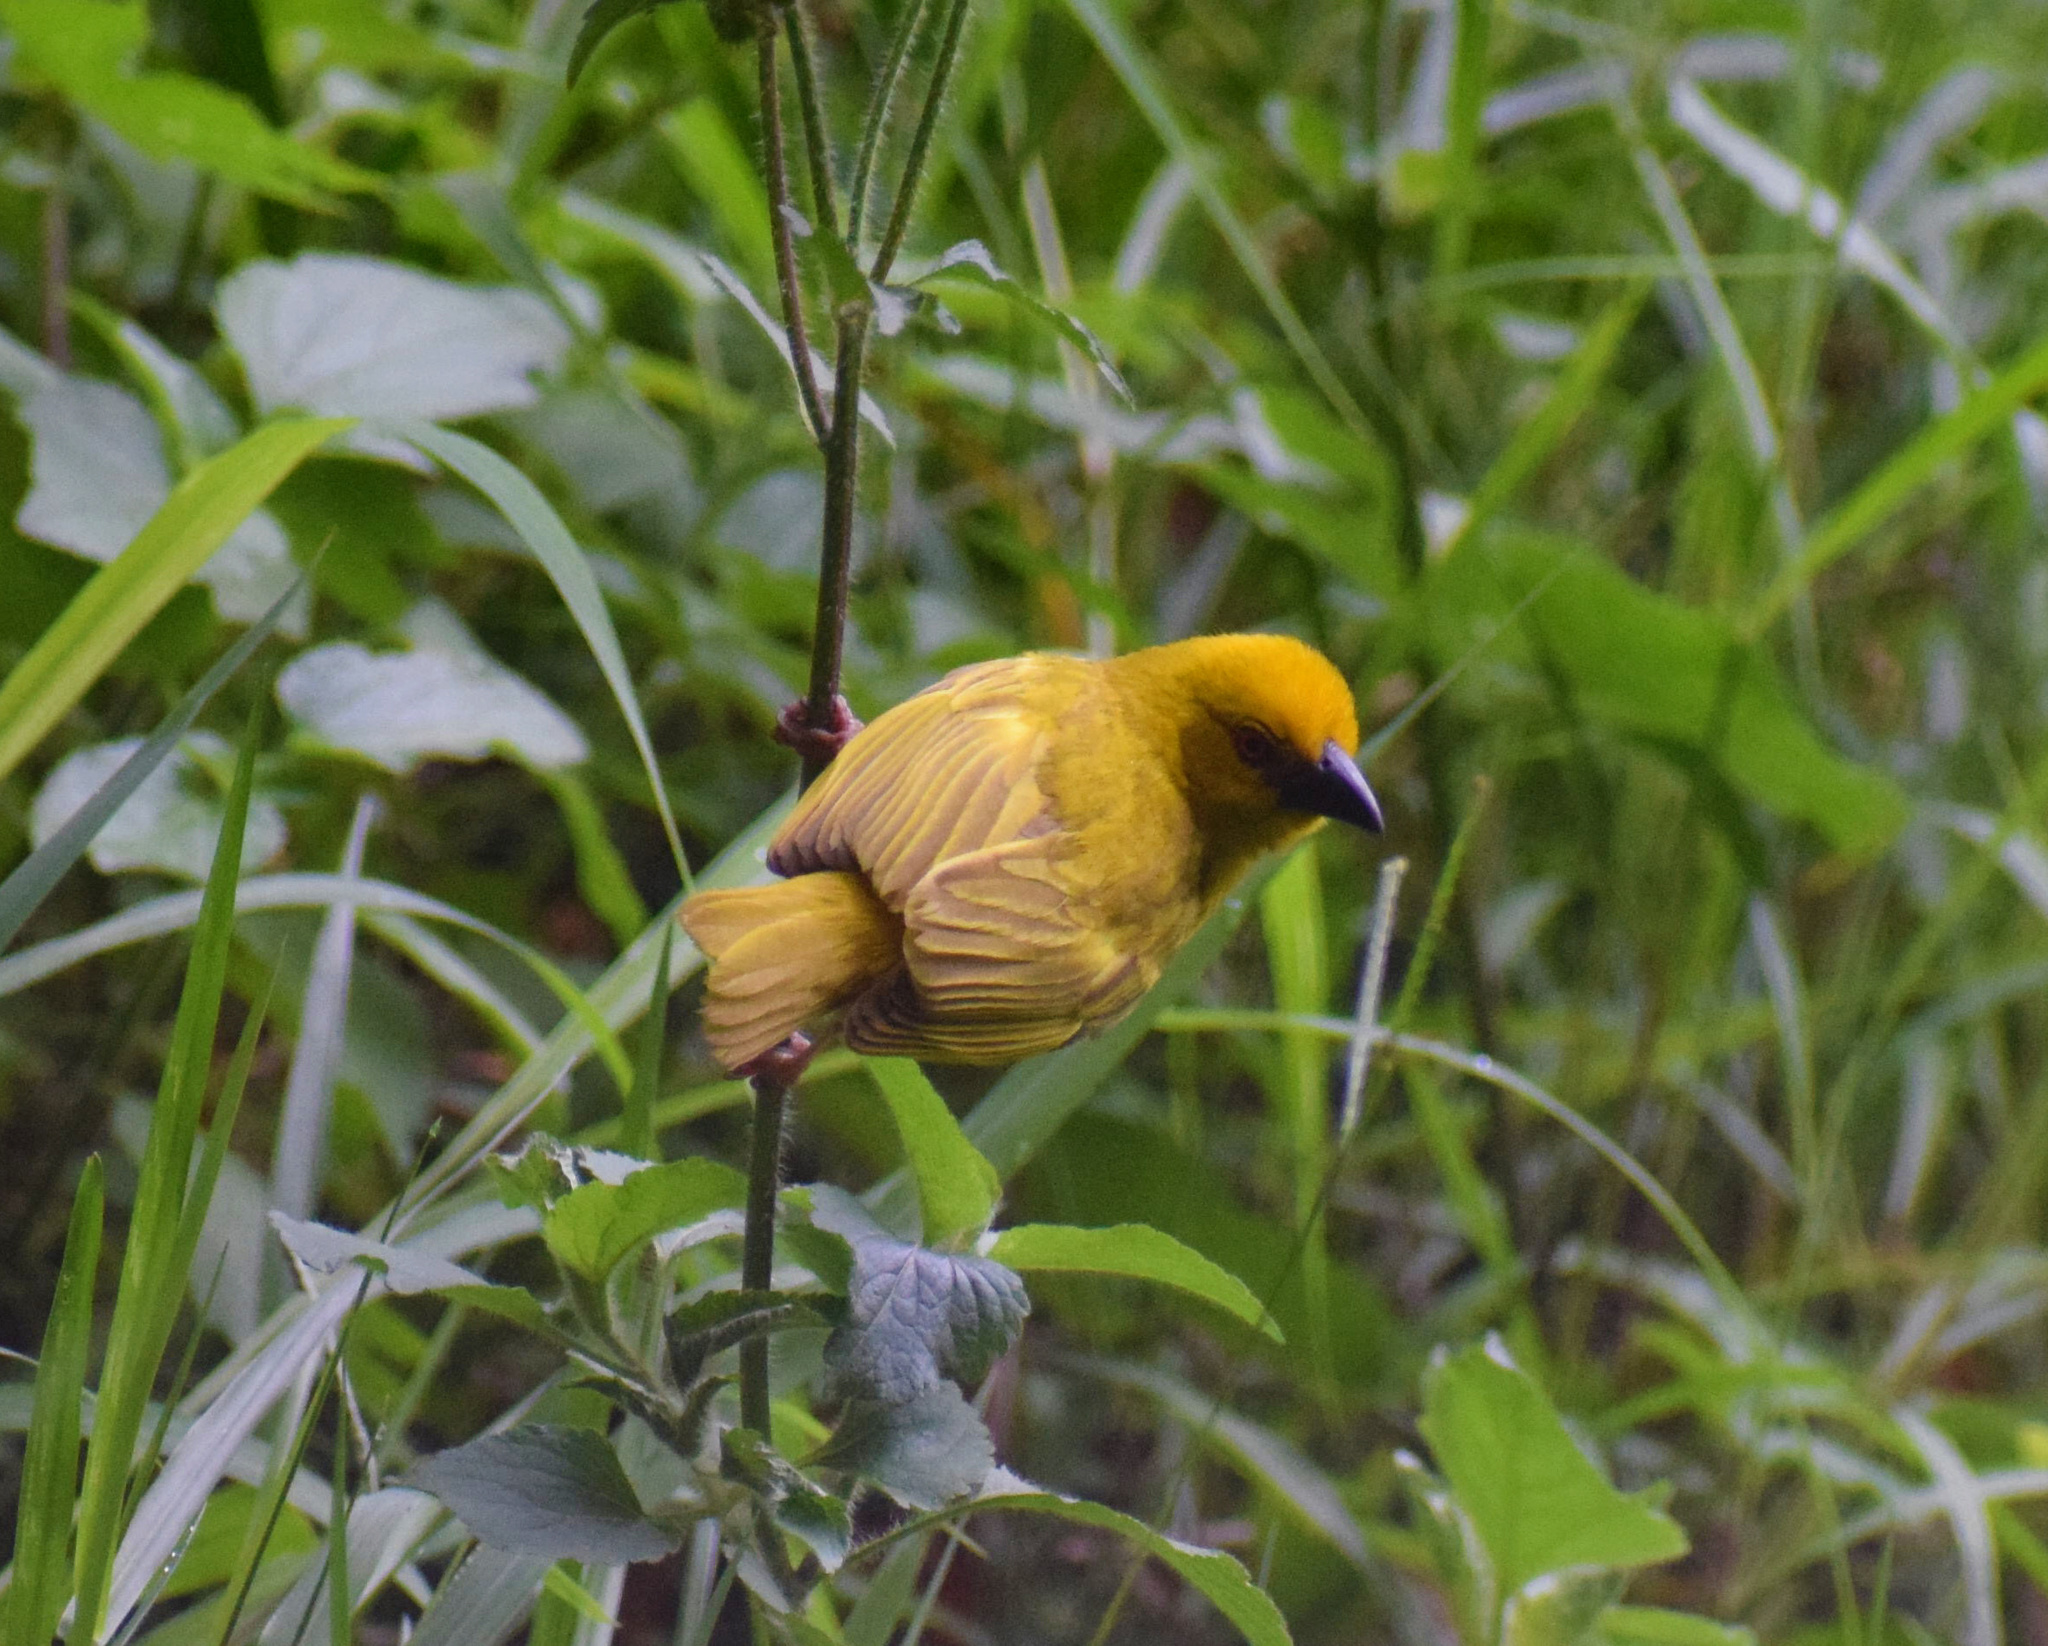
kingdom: Animalia
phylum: Chordata
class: Aves
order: Passeriformes
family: Ploceidae
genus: Ploceus
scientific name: Ploceus subaureus
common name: Yellow weaver
